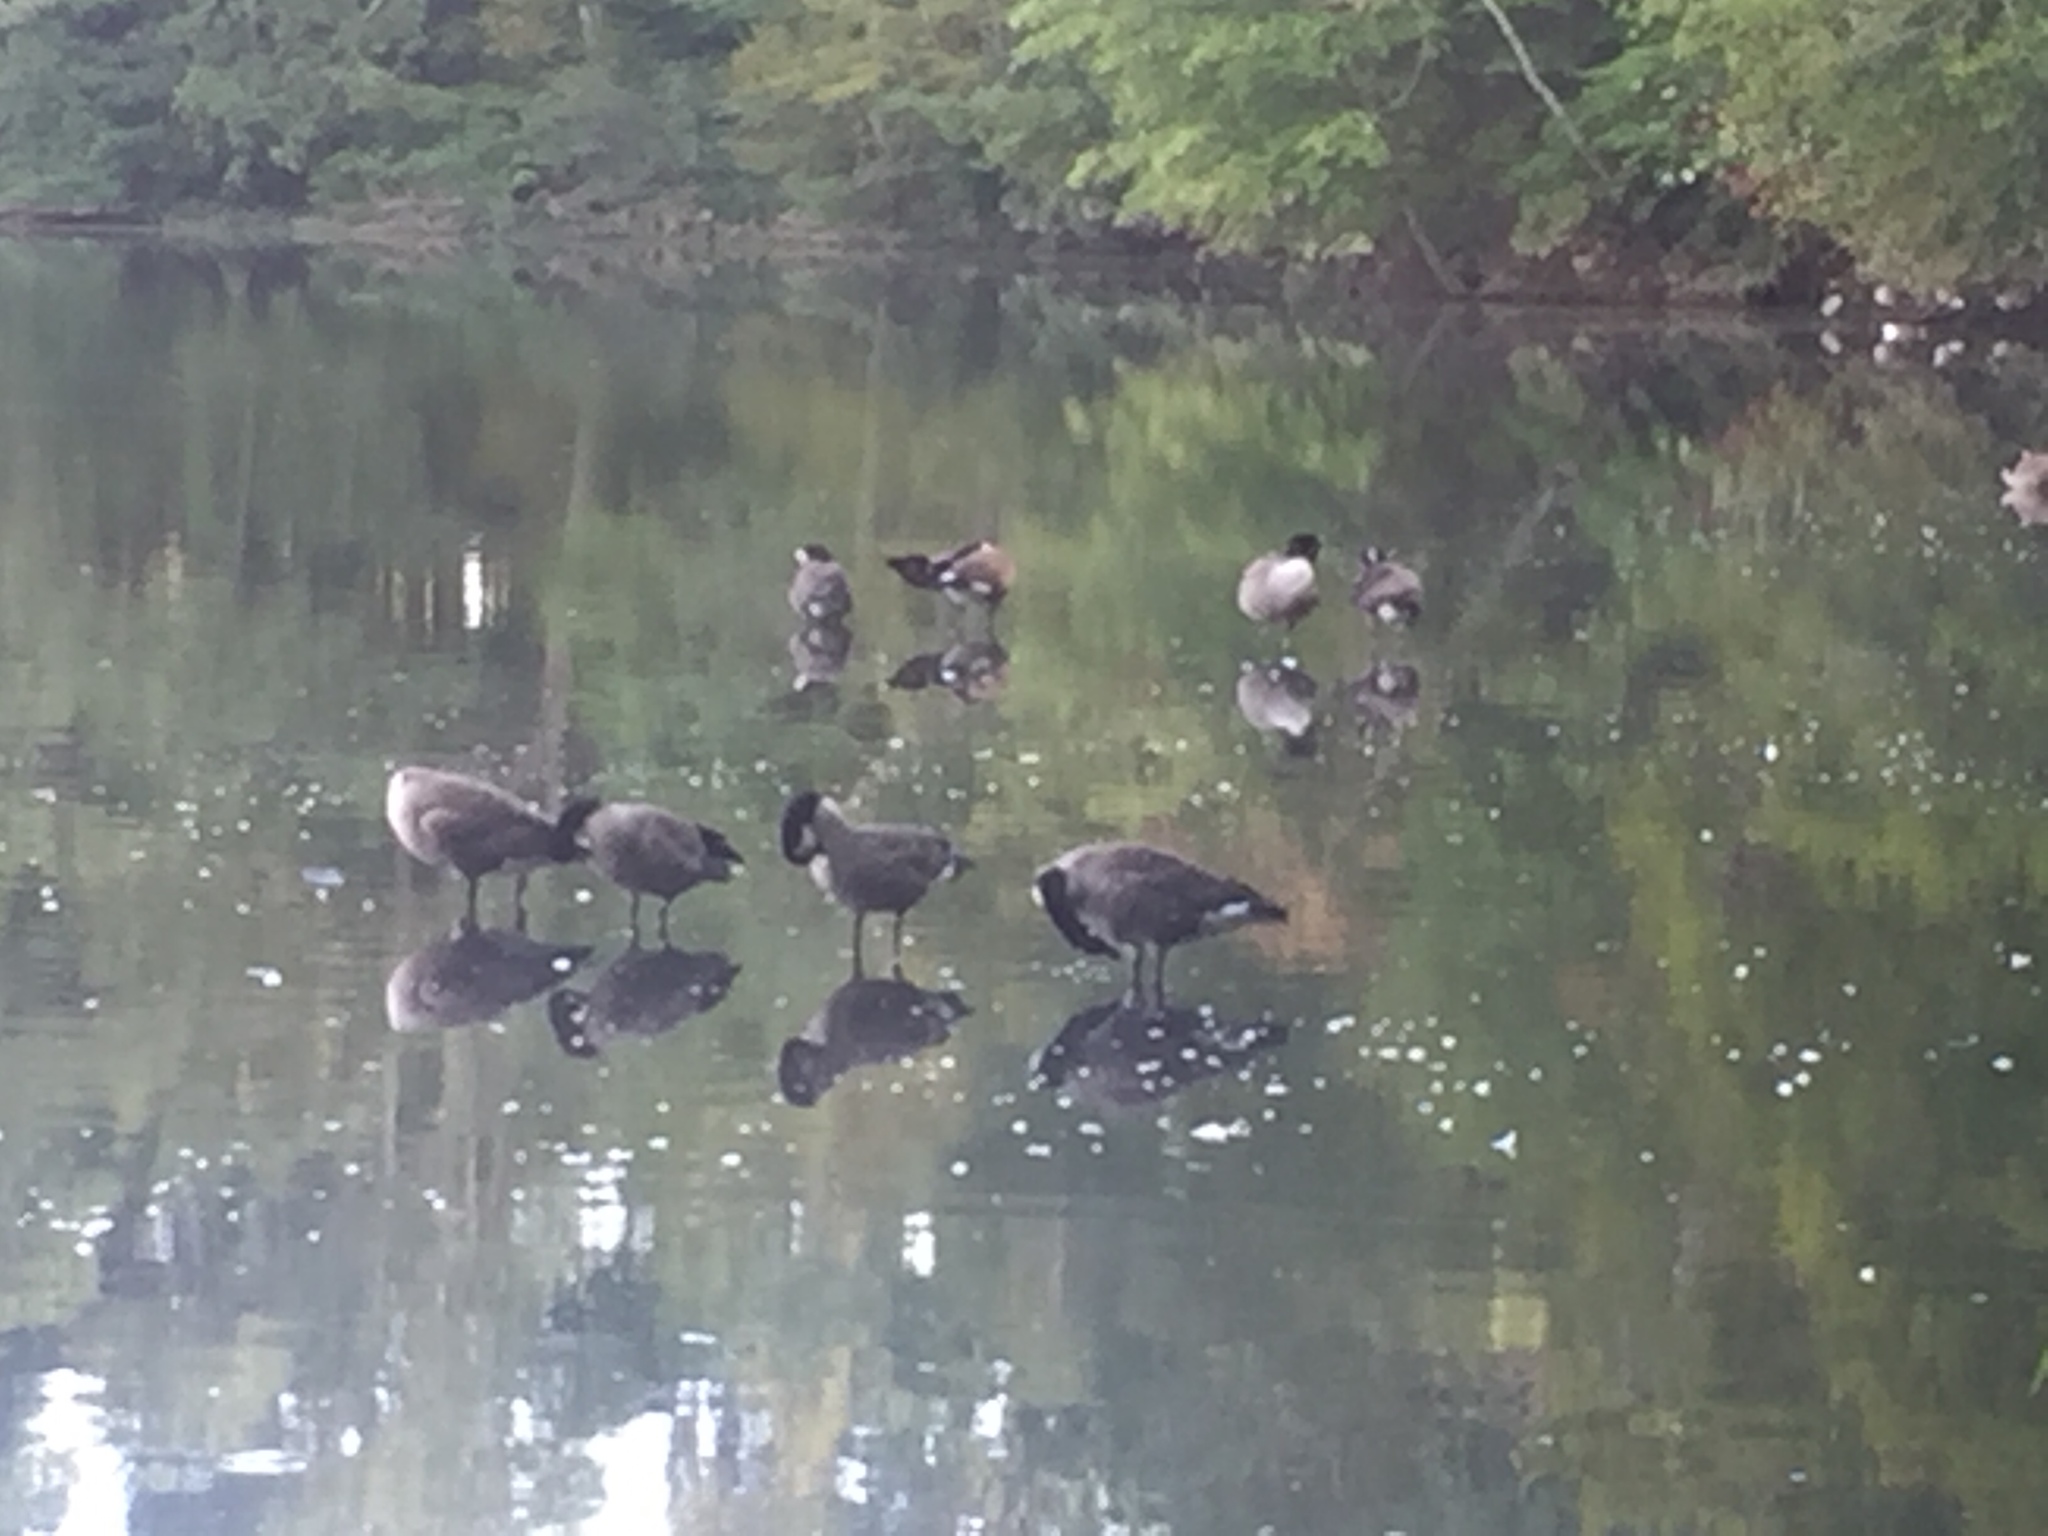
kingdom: Animalia
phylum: Chordata
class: Aves
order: Anseriformes
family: Anatidae
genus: Branta
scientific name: Branta canadensis
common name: Canada goose
